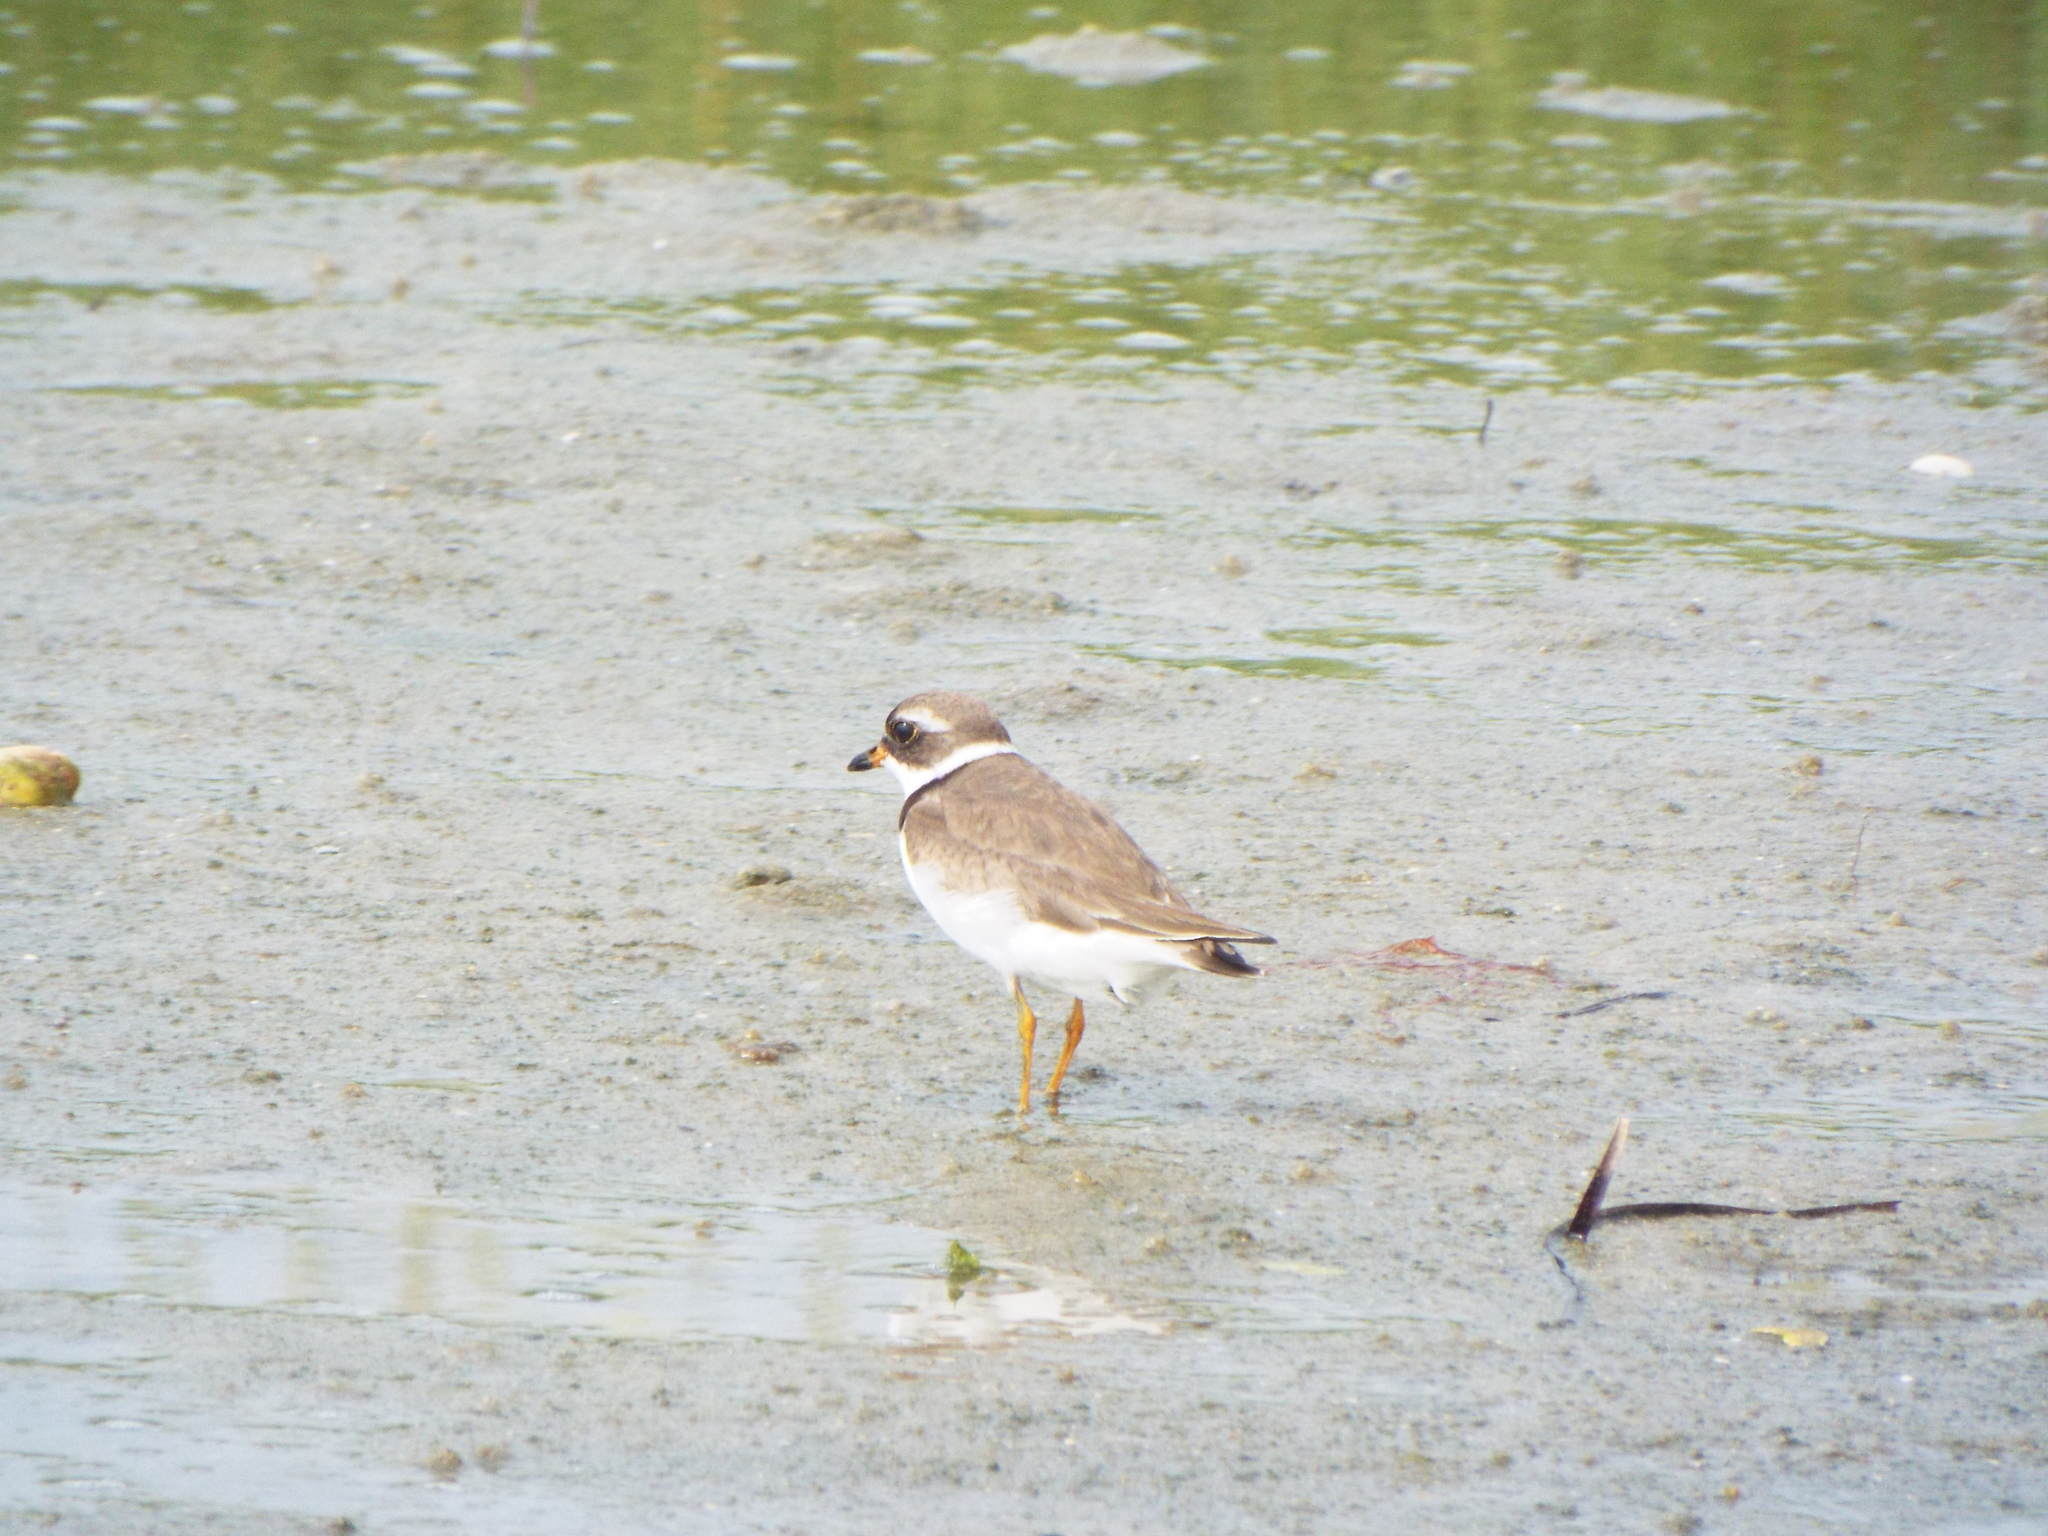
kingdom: Animalia
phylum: Chordata
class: Aves
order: Charadriiformes
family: Charadriidae
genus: Charadrius
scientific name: Charadrius semipalmatus
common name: Semipalmated plover
